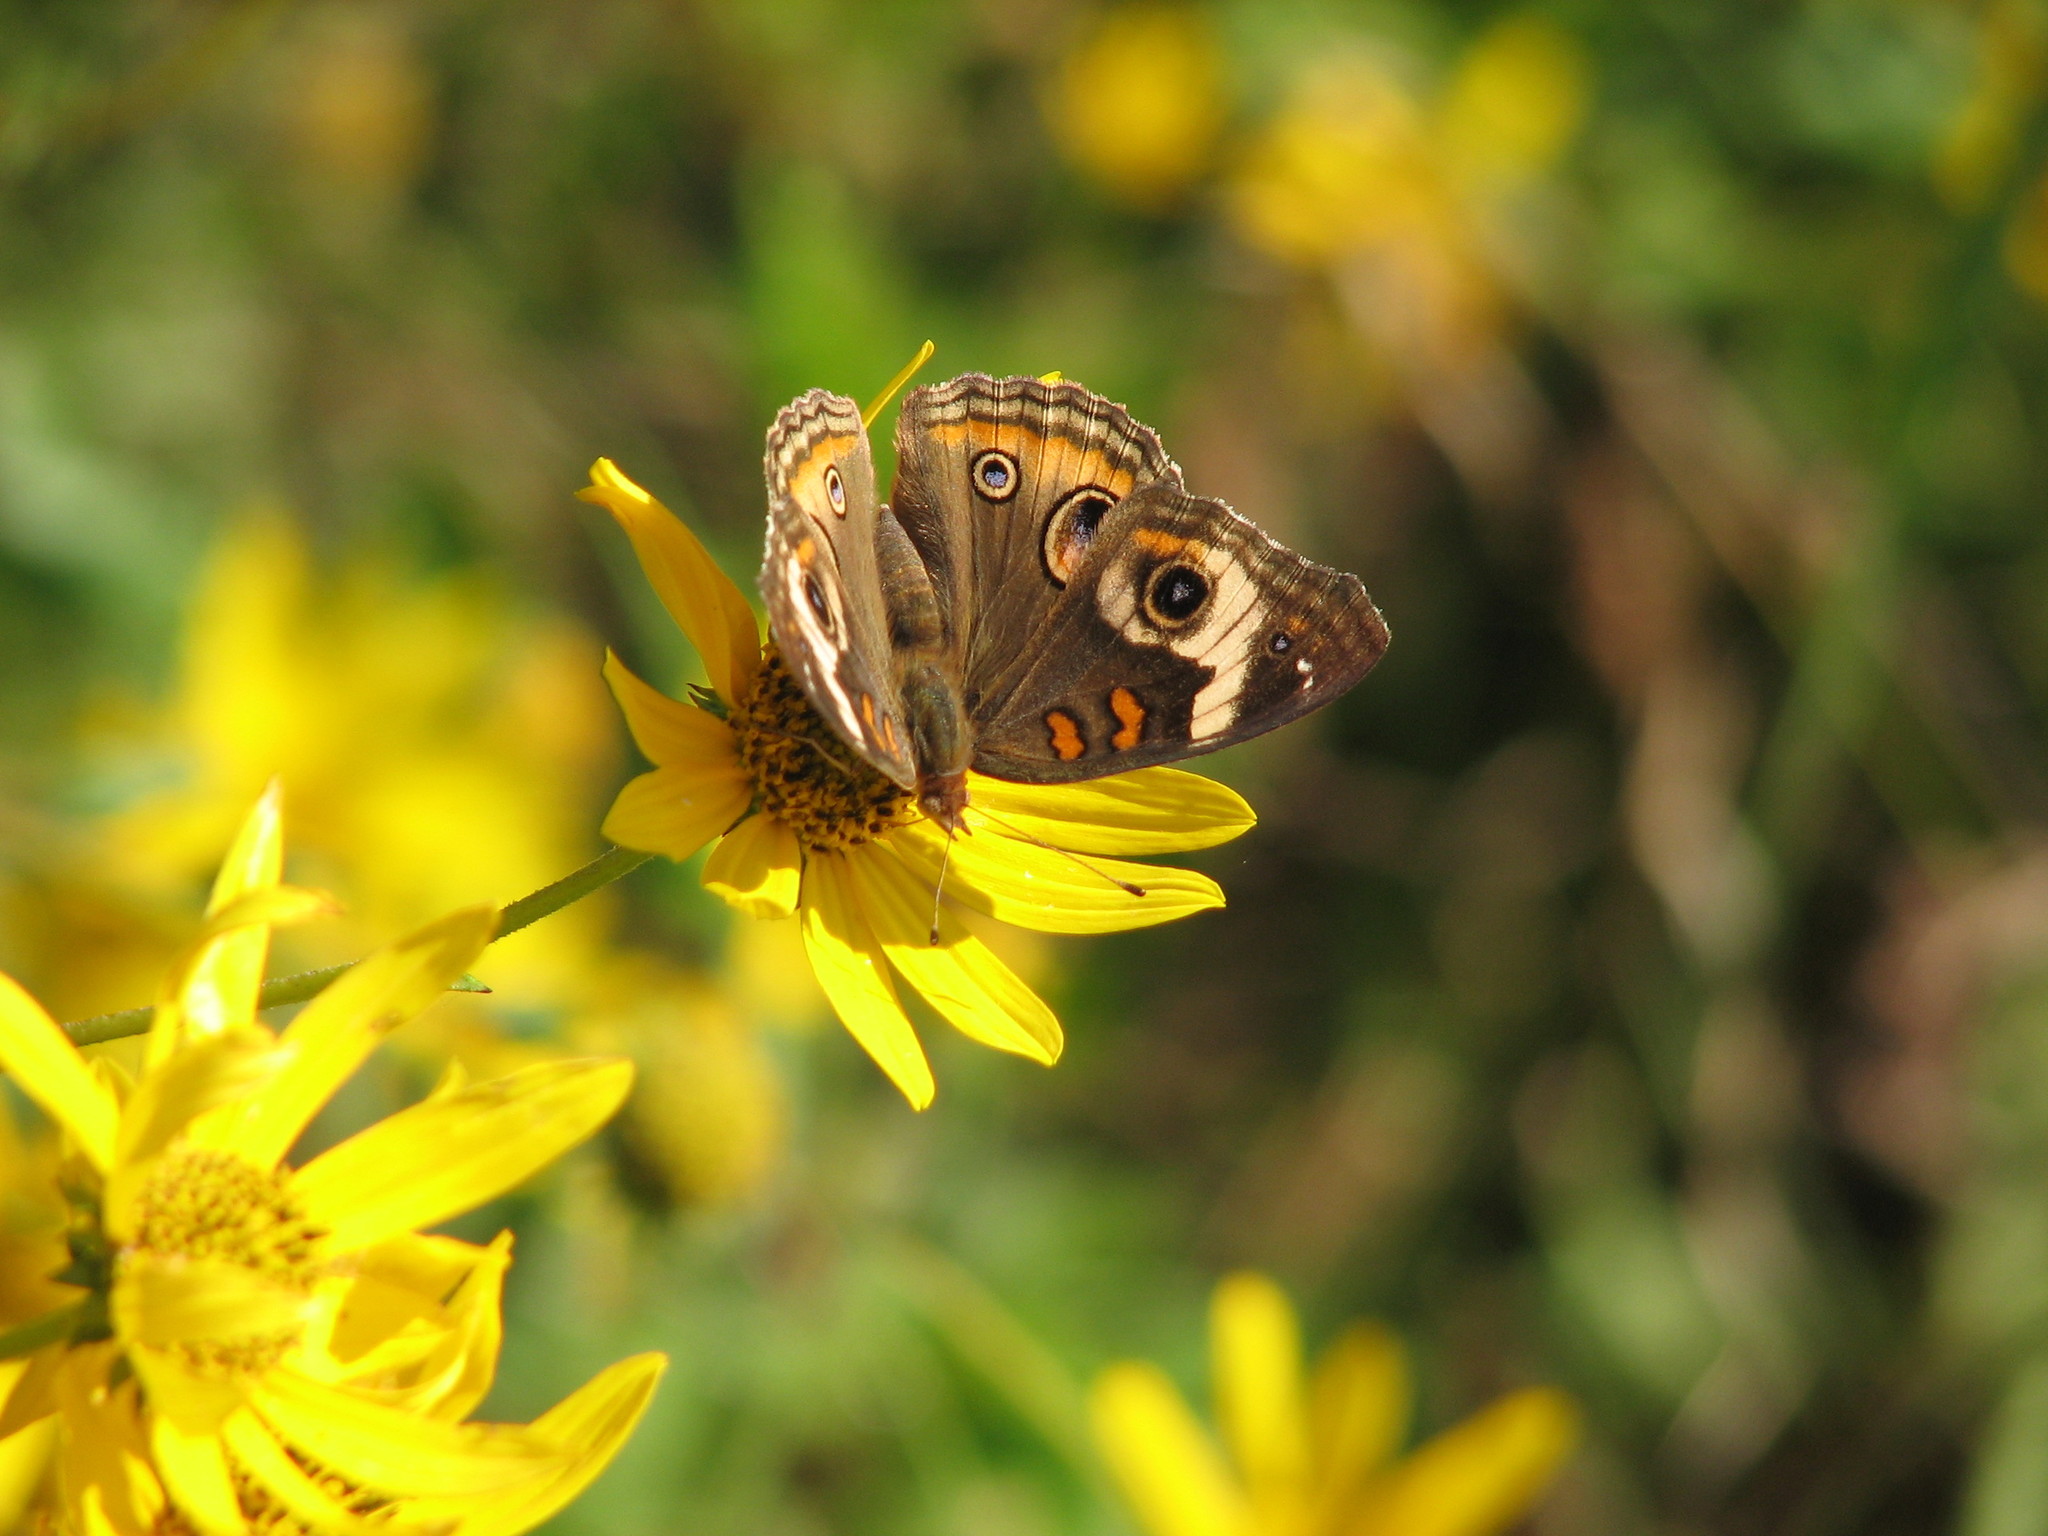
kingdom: Animalia
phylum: Arthropoda
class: Insecta
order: Lepidoptera
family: Nymphalidae
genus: Junonia
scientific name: Junonia coenia
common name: Common buckeye
